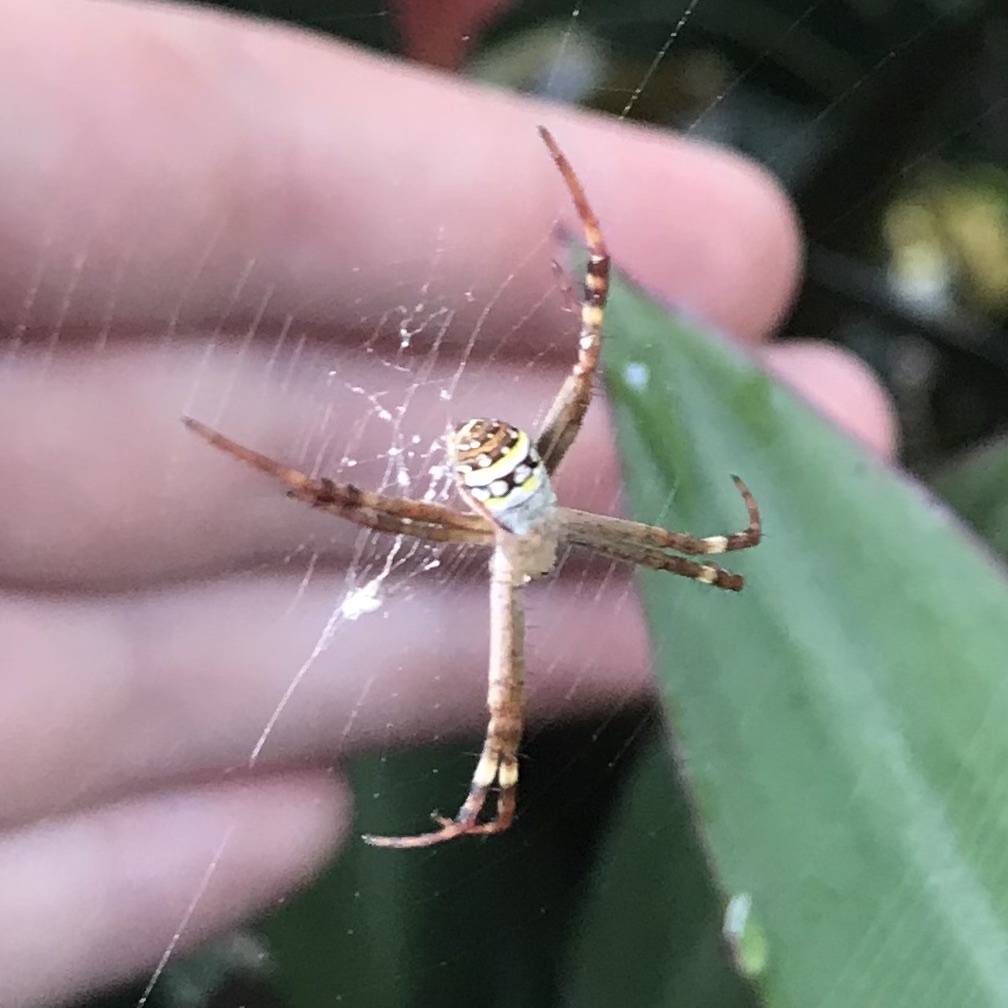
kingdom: Animalia
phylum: Arthropoda
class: Arachnida
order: Araneae
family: Araneidae
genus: Argiope
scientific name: Argiope keyserlingi
